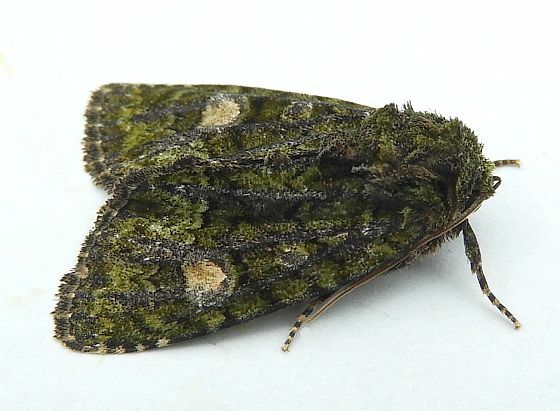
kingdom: Animalia
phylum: Arthropoda
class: Insecta
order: Lepidoptera
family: Noctuidae
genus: Phosphila
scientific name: Phosphila miselioides
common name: Spotted phosphila moth
